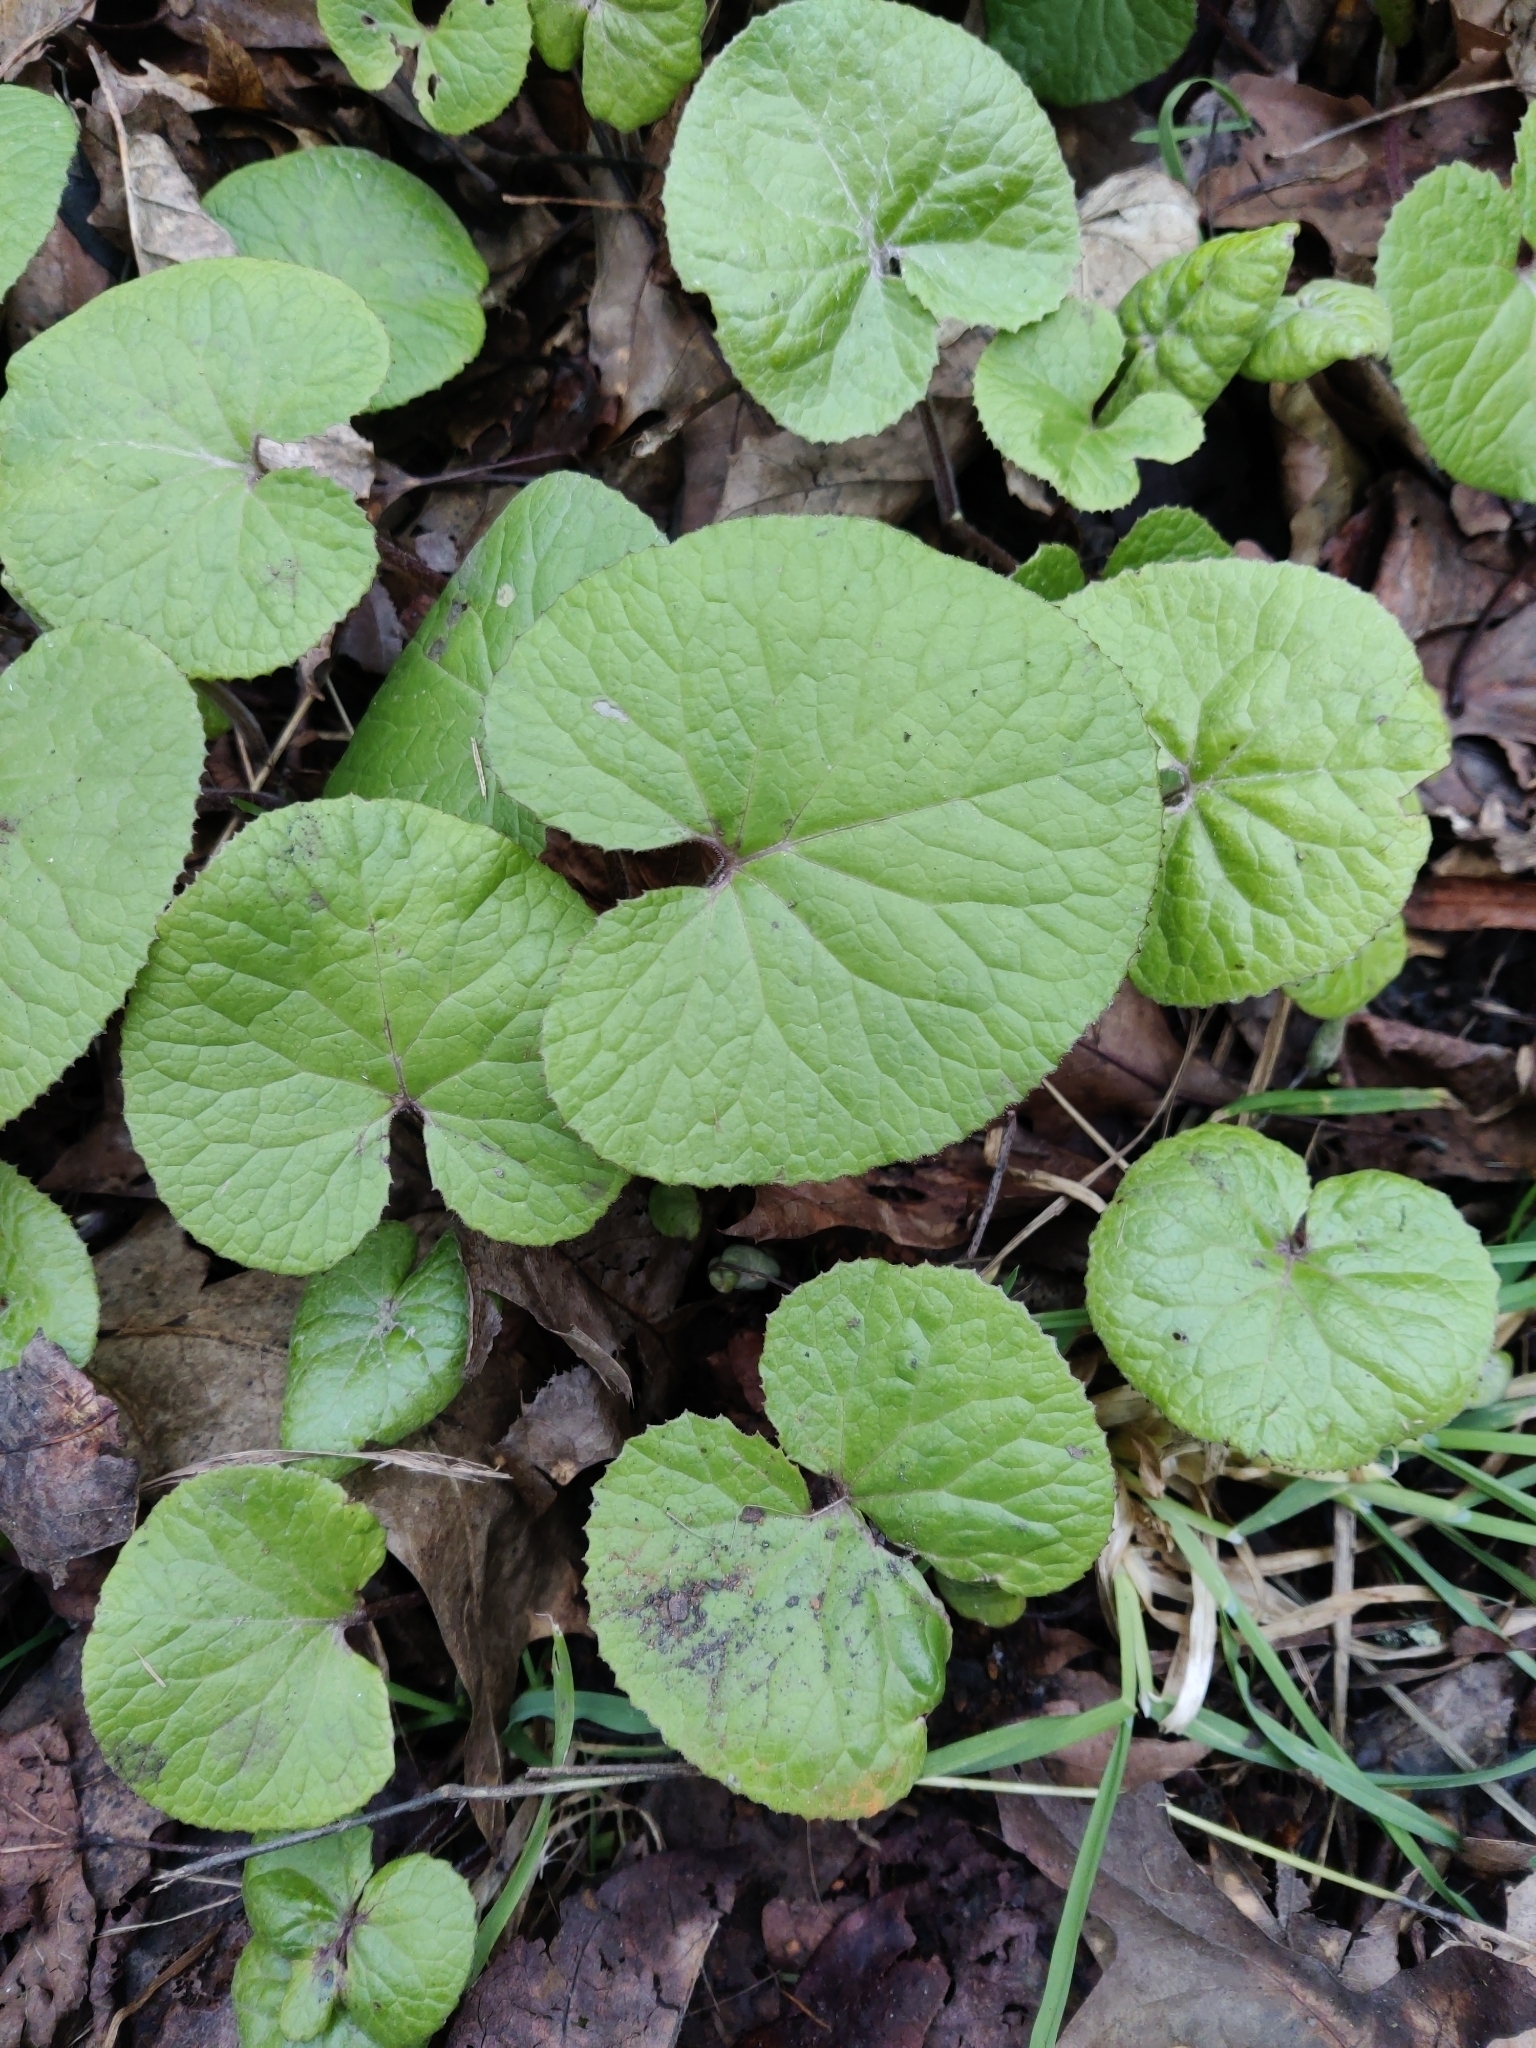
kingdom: Plantae
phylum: Tracheophyta
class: Magnoliopsida
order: Asterales
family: Asteraceae
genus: Petasites
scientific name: Petasites pyrenaicus
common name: Winter heliotrope
